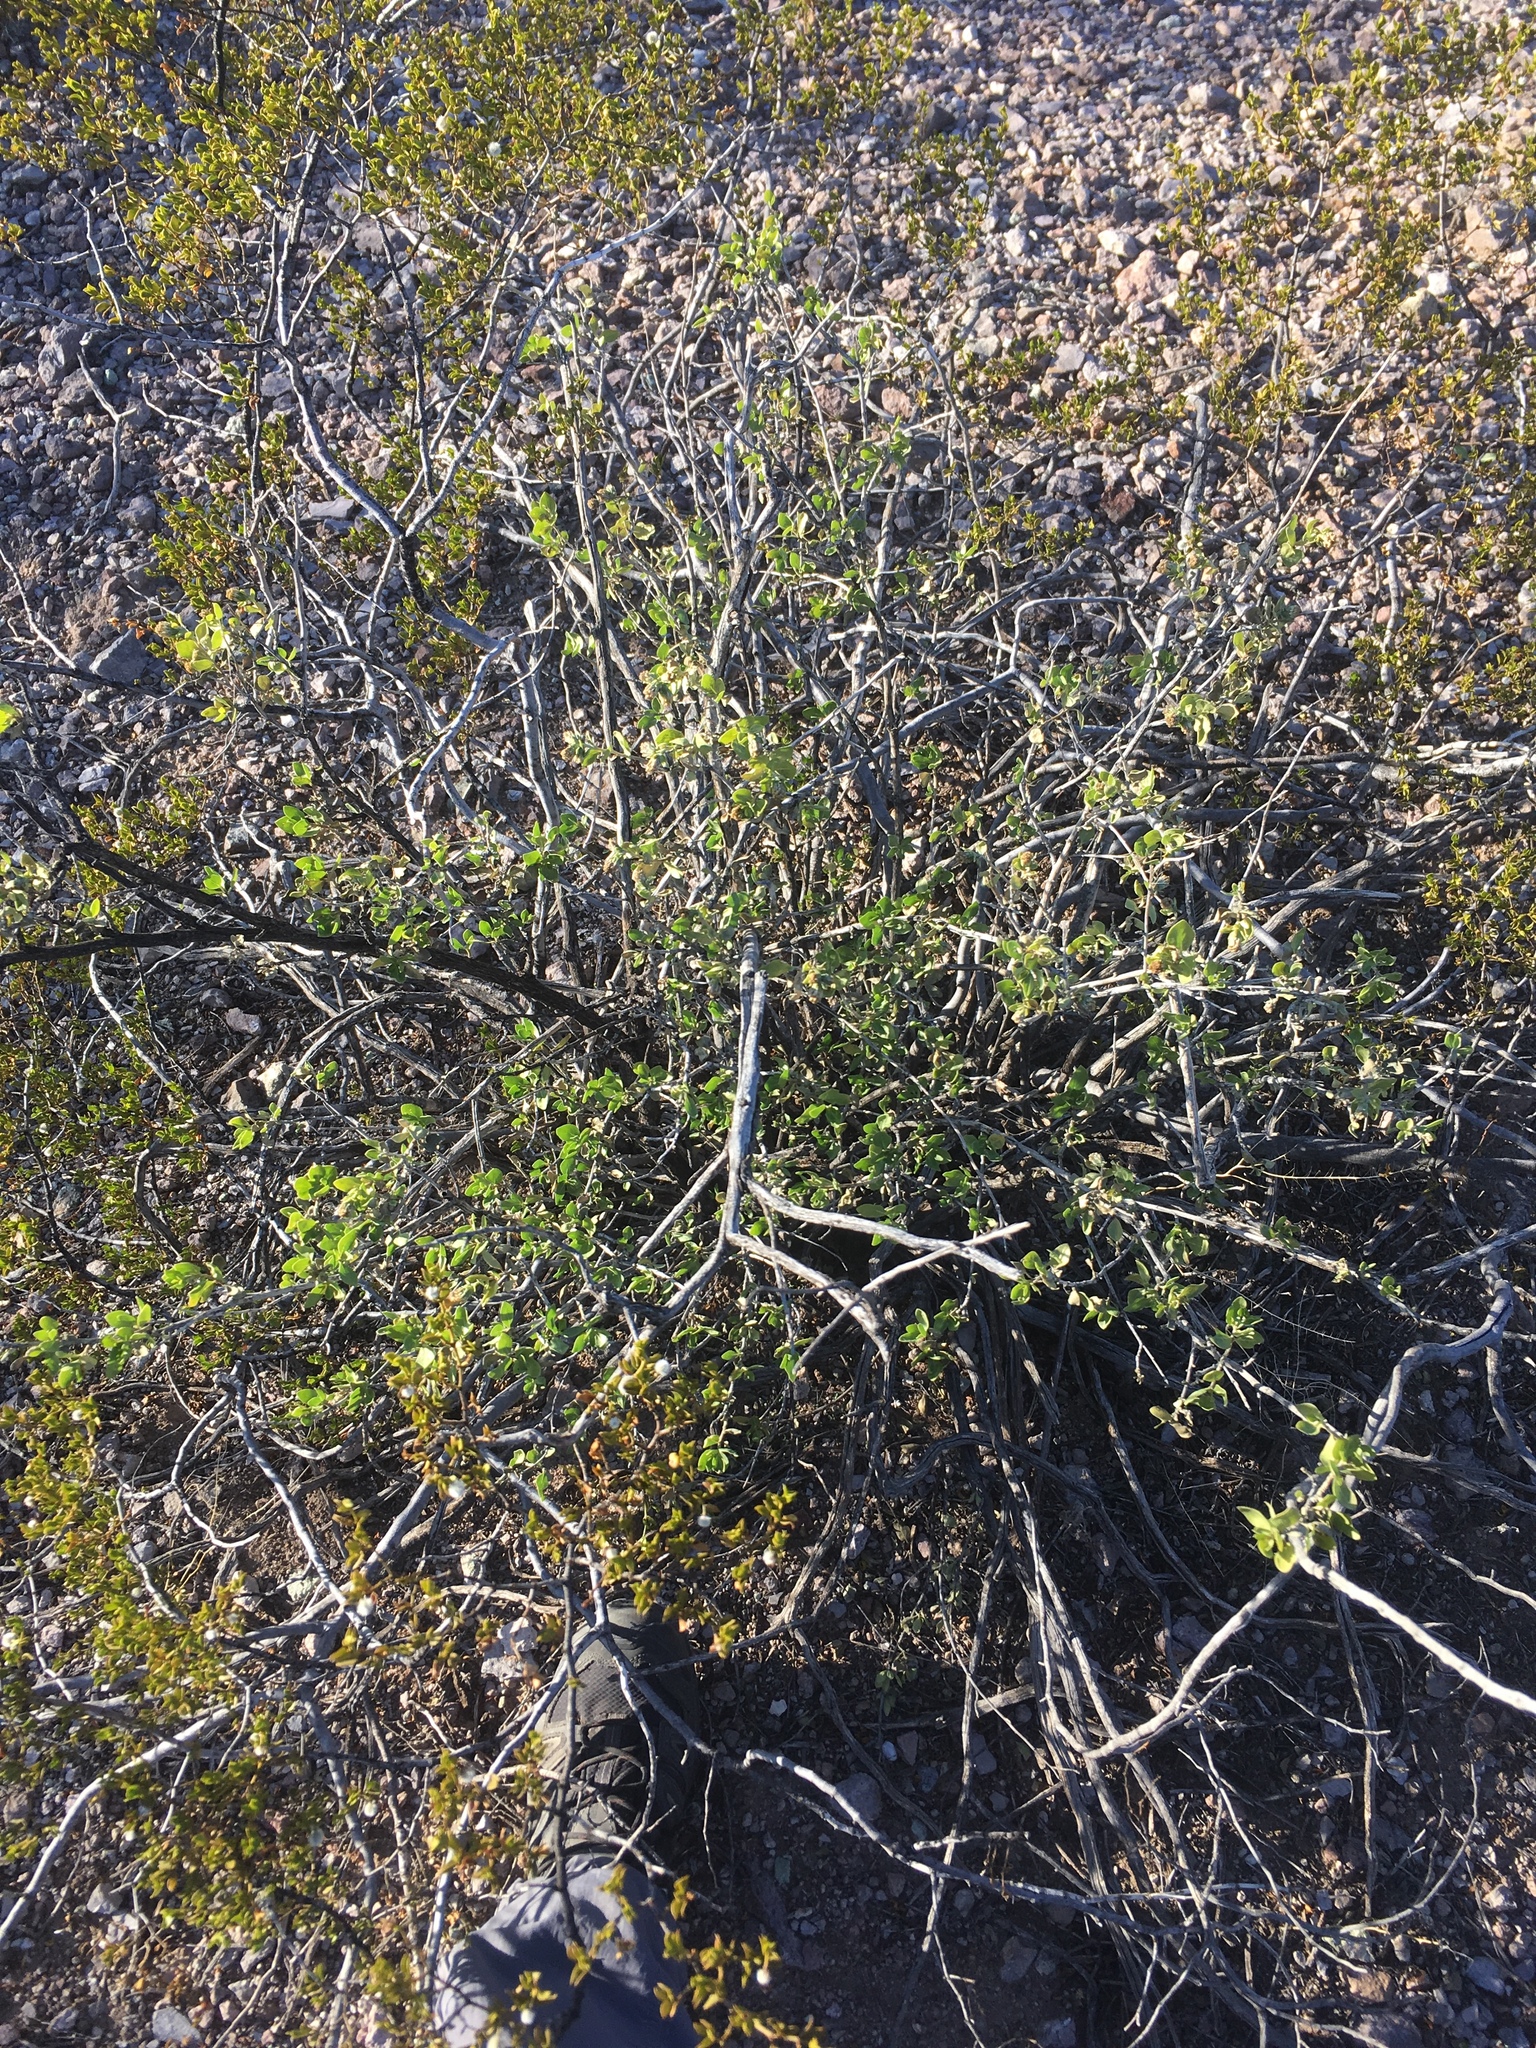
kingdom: Plantae
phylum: Tracheophyta
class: Magnoliopsida
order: Asterales
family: Asteraceae
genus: Flourensia
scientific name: Flourensia cernua
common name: Varnishbush
